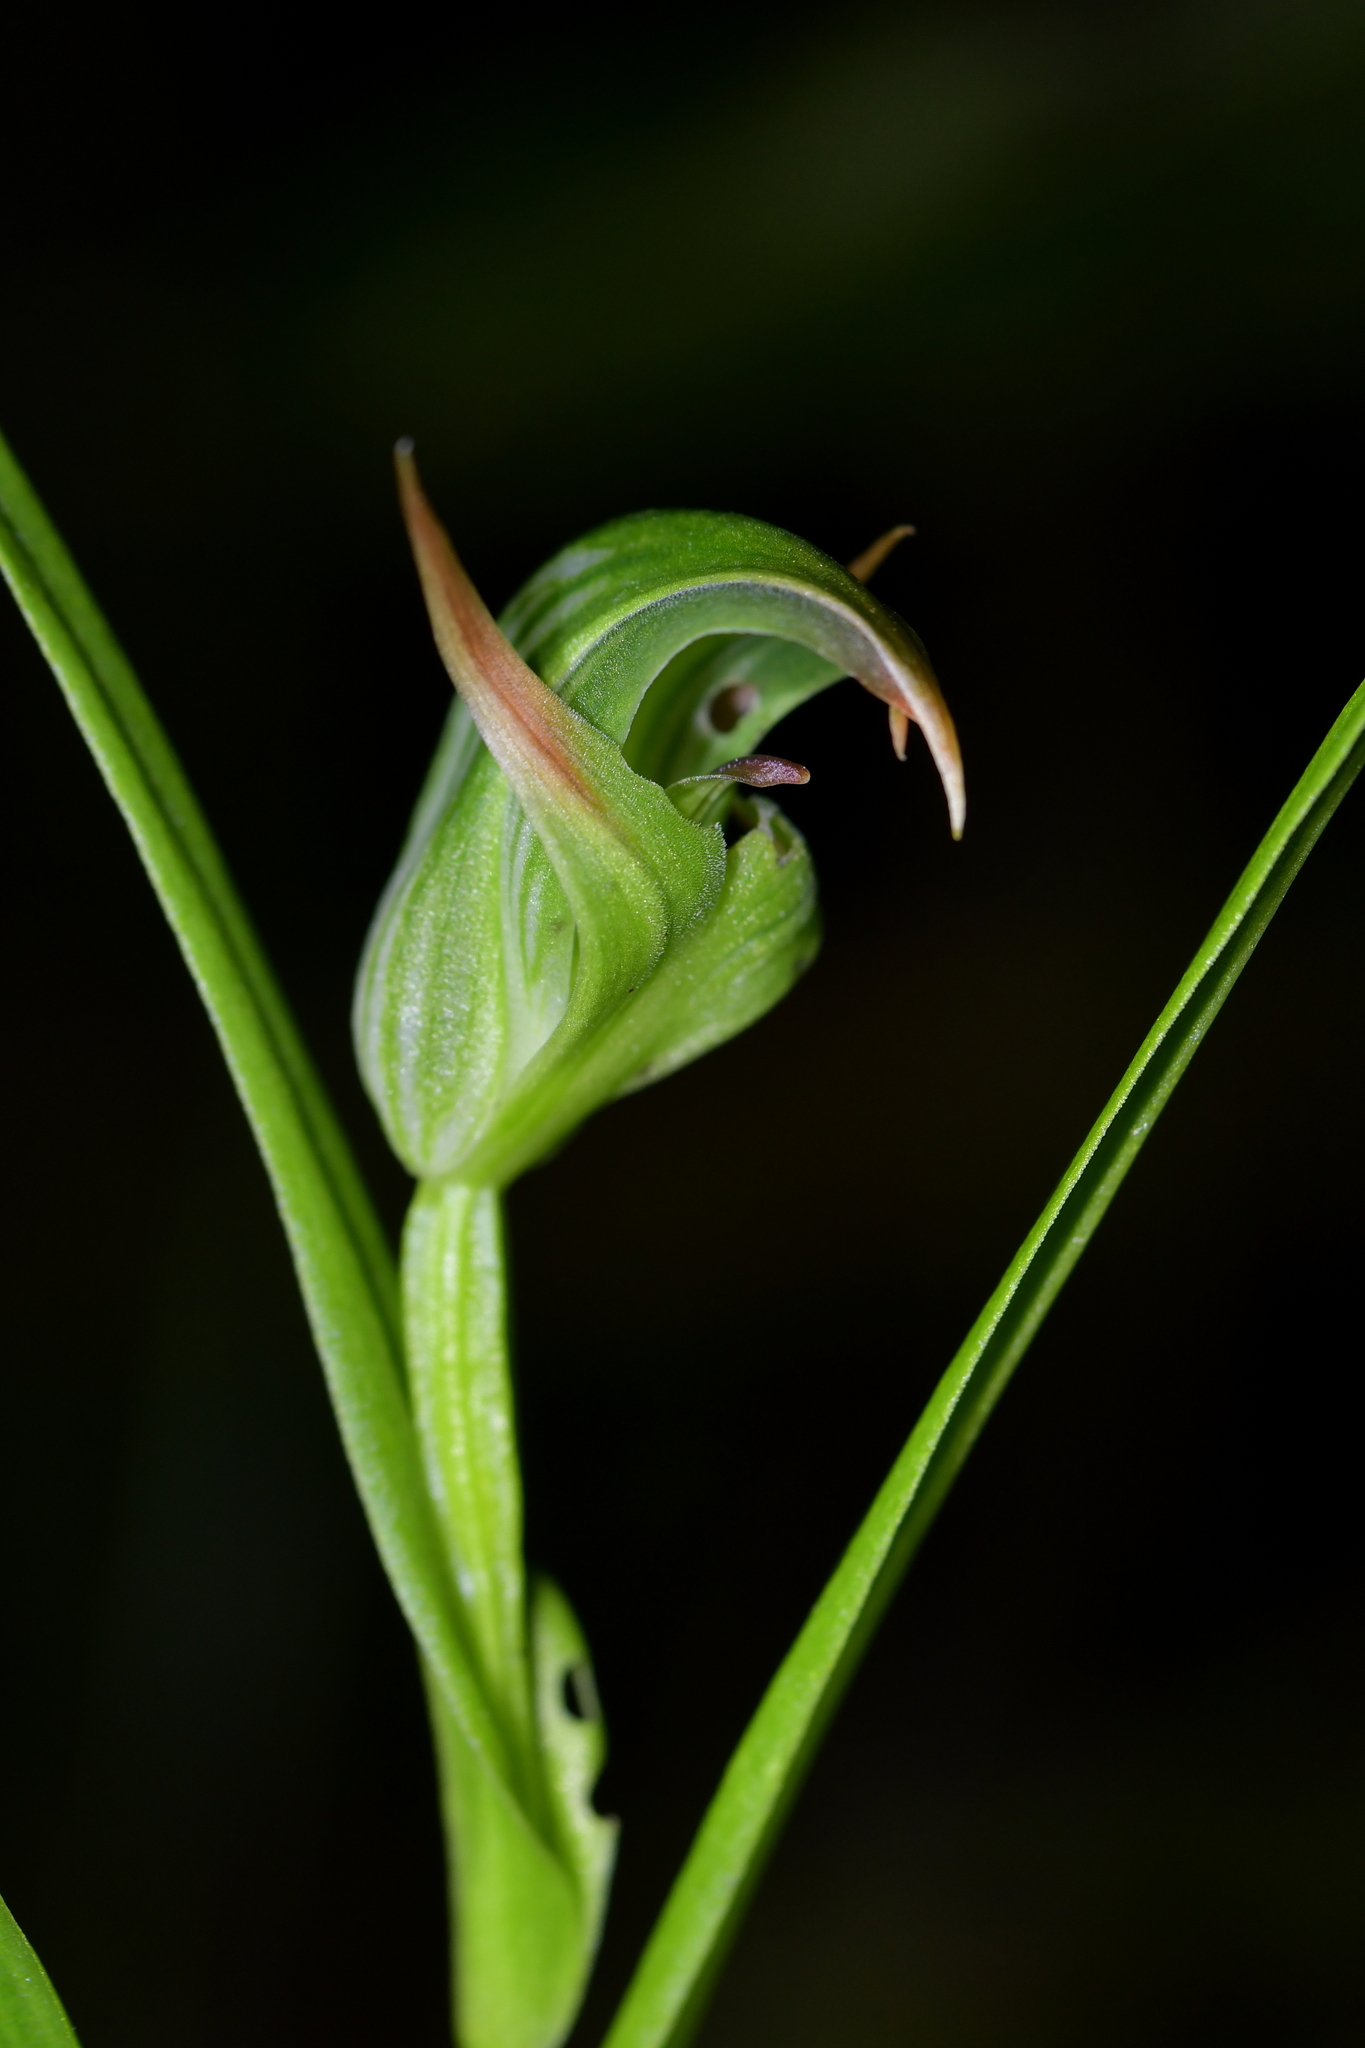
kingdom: Plantae
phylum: Tracheophyta
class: Liliopsida
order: Asparagales
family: Orchidaceae
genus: Pterostylis
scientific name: Pterostylis montana
